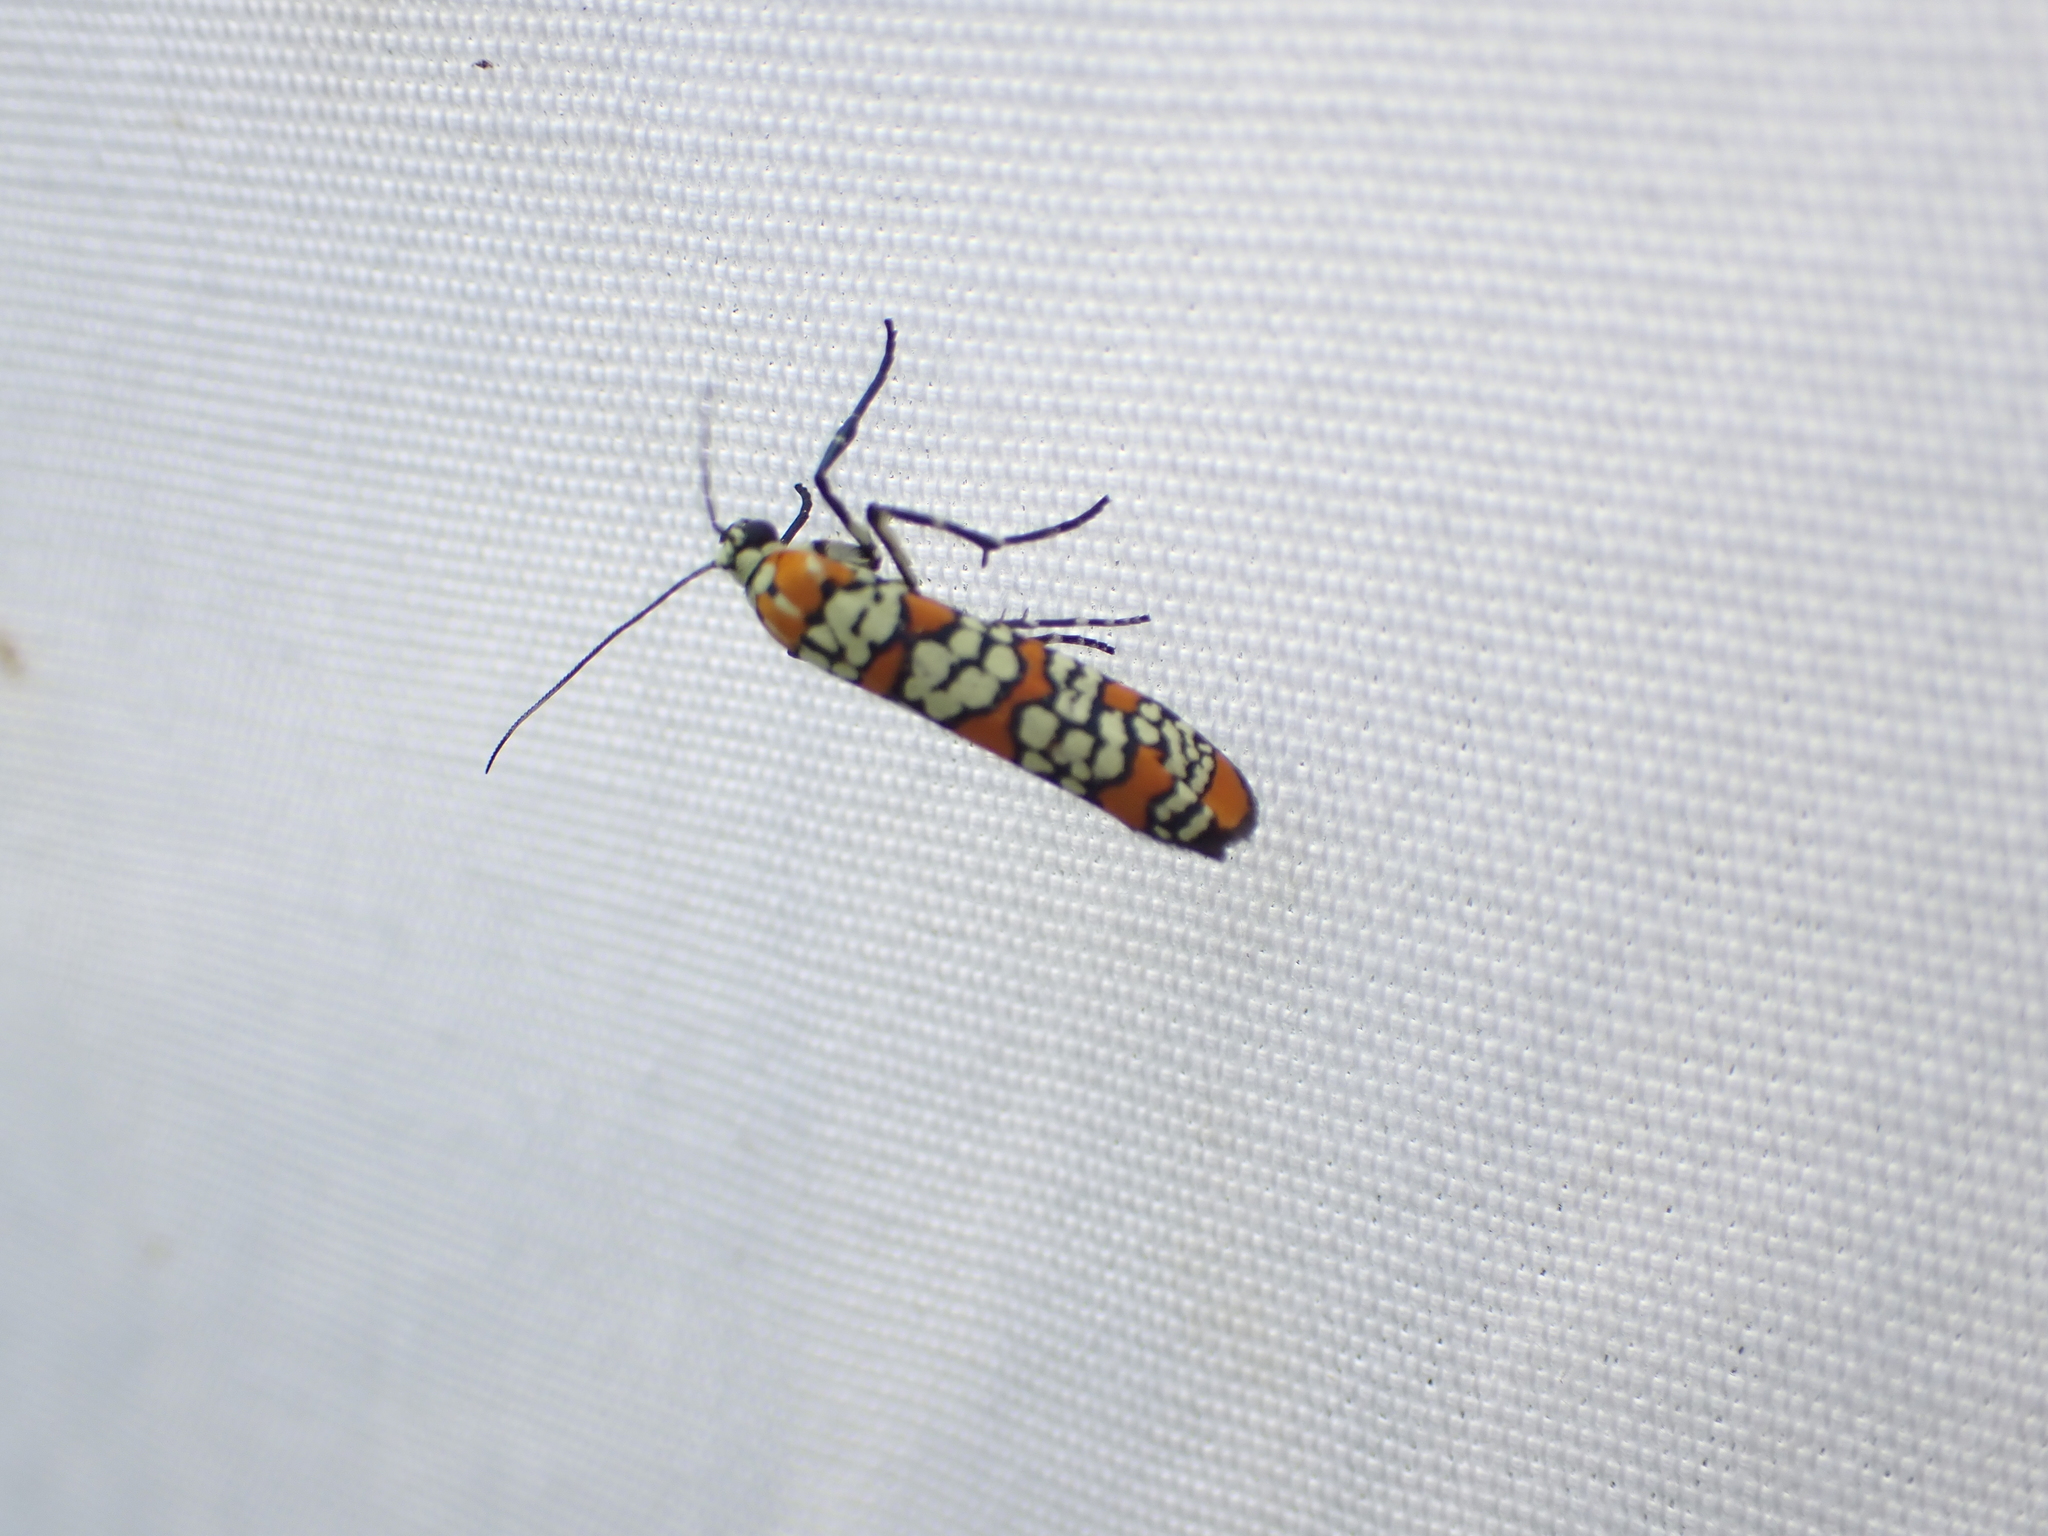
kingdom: Animalia
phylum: Arthropoda
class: Insecta
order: Lepidoptera
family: Attevidae
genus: Atteva
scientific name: Atteva punctella
